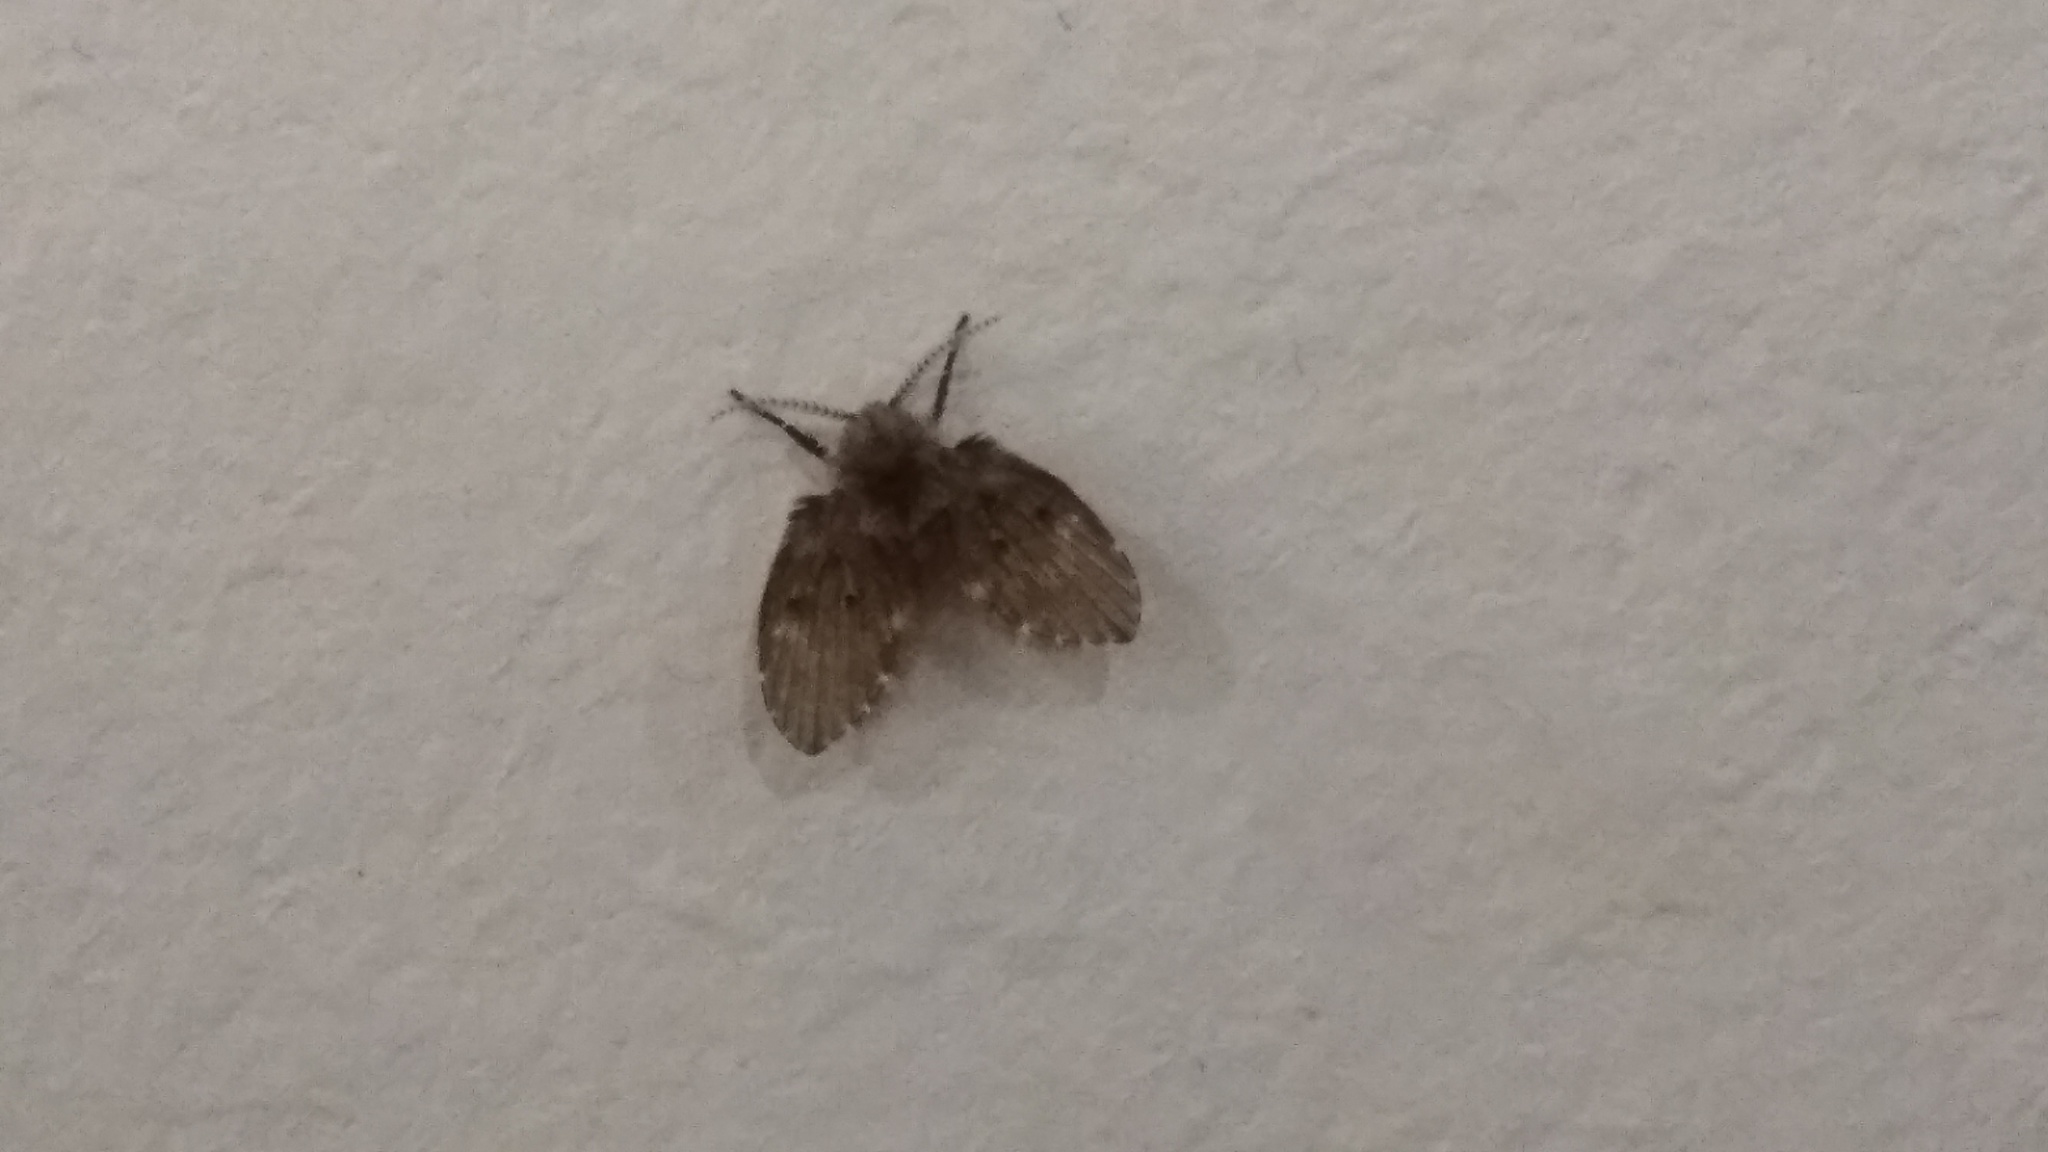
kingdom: Animalia
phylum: Arthropoda
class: Insecta
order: Diptera
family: Psychodidae
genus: Clogmia
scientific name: Clogmia albipunctatus
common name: White-spotted moth fly
